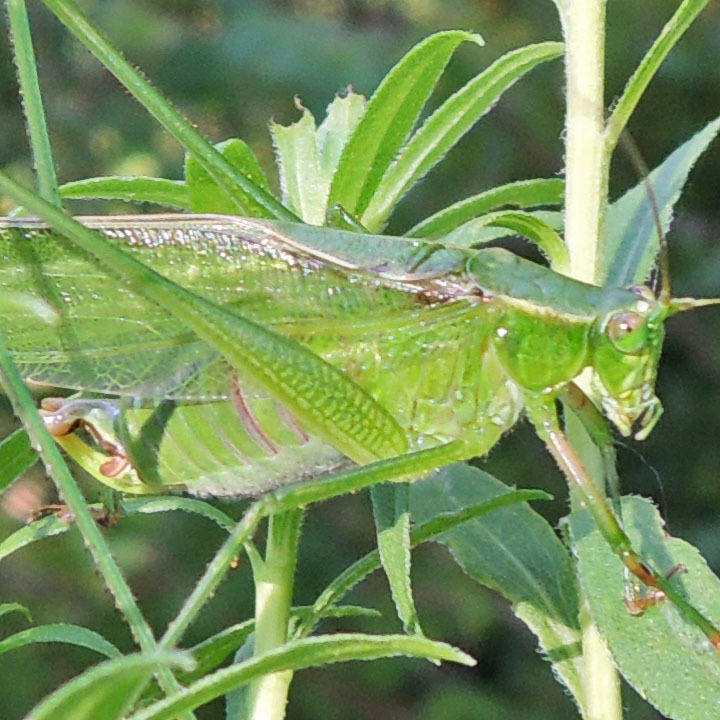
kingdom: Animalia
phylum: Arthropoda
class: Insecta
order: Orthoptera
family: Tettigoniidae
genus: Scudderia
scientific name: Scudderia fasciata
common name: Treetop bush katydid
